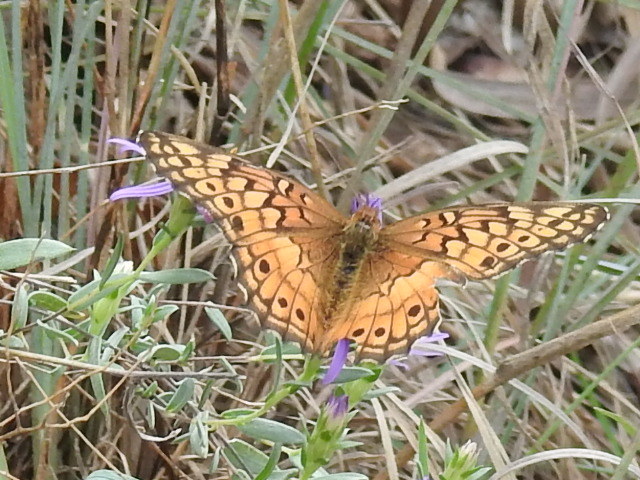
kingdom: Animalia
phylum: Arthropoda
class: Insecta
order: Lepidoptera
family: Nymphalidae
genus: Euptoieta
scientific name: Euptoieta claudia
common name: Variegated fritillary
